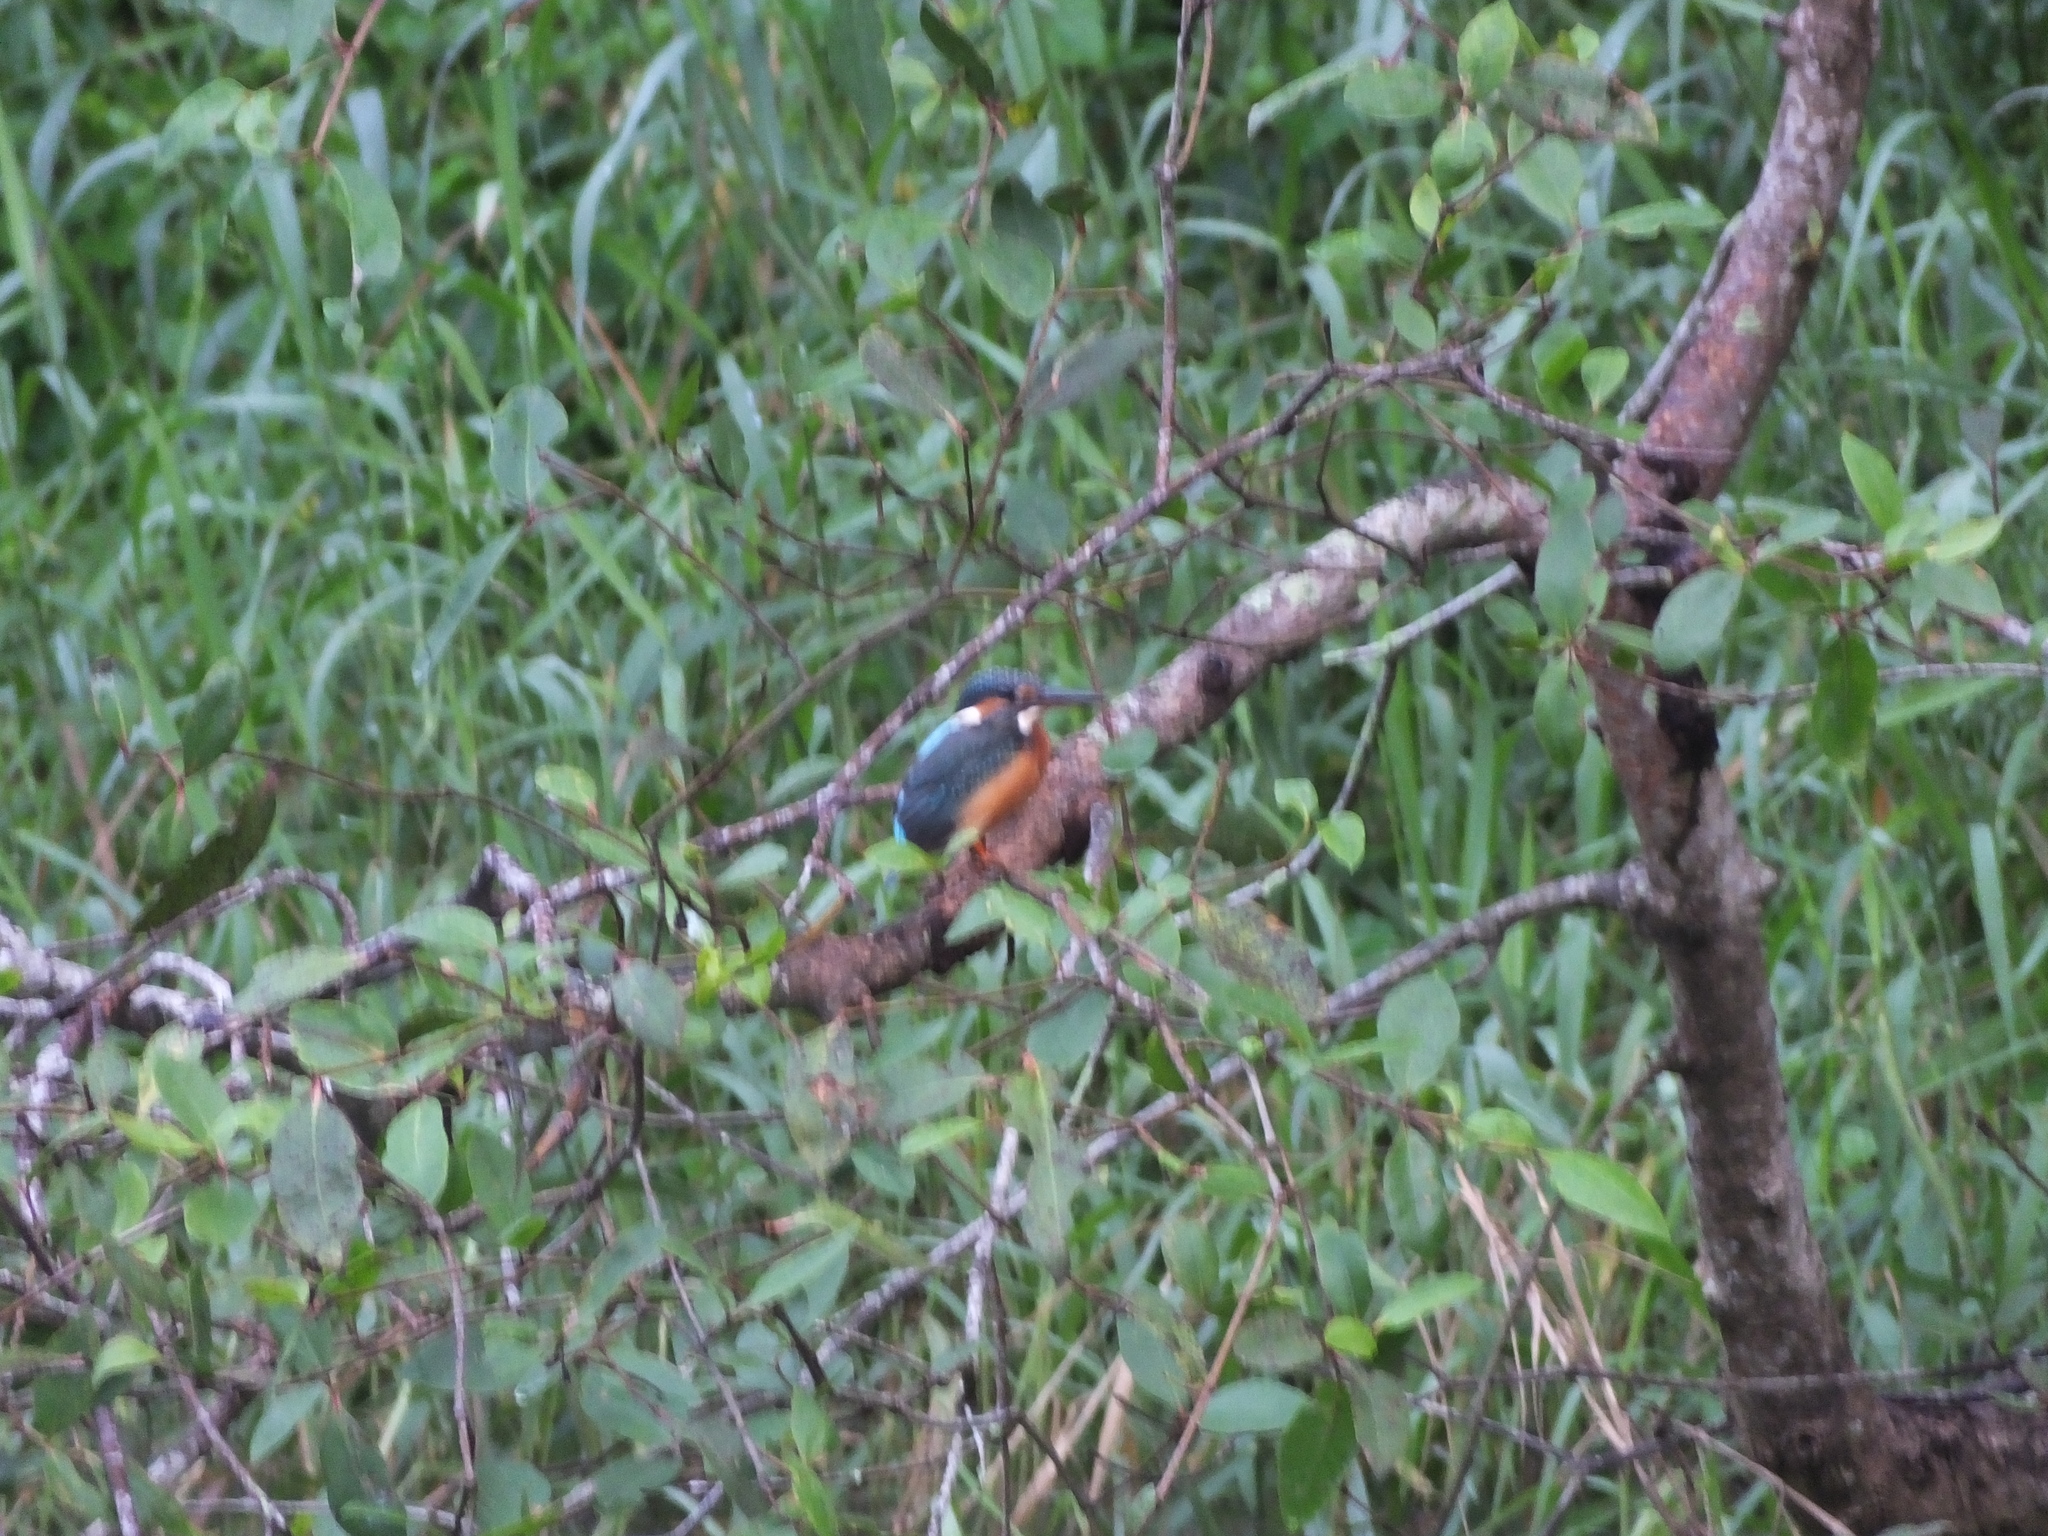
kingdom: Animalia
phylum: Chordata
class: Aves
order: Coraciiformes
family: Alcedinidae
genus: Alcedo
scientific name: Alcedo atthis
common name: Common kingfisher
